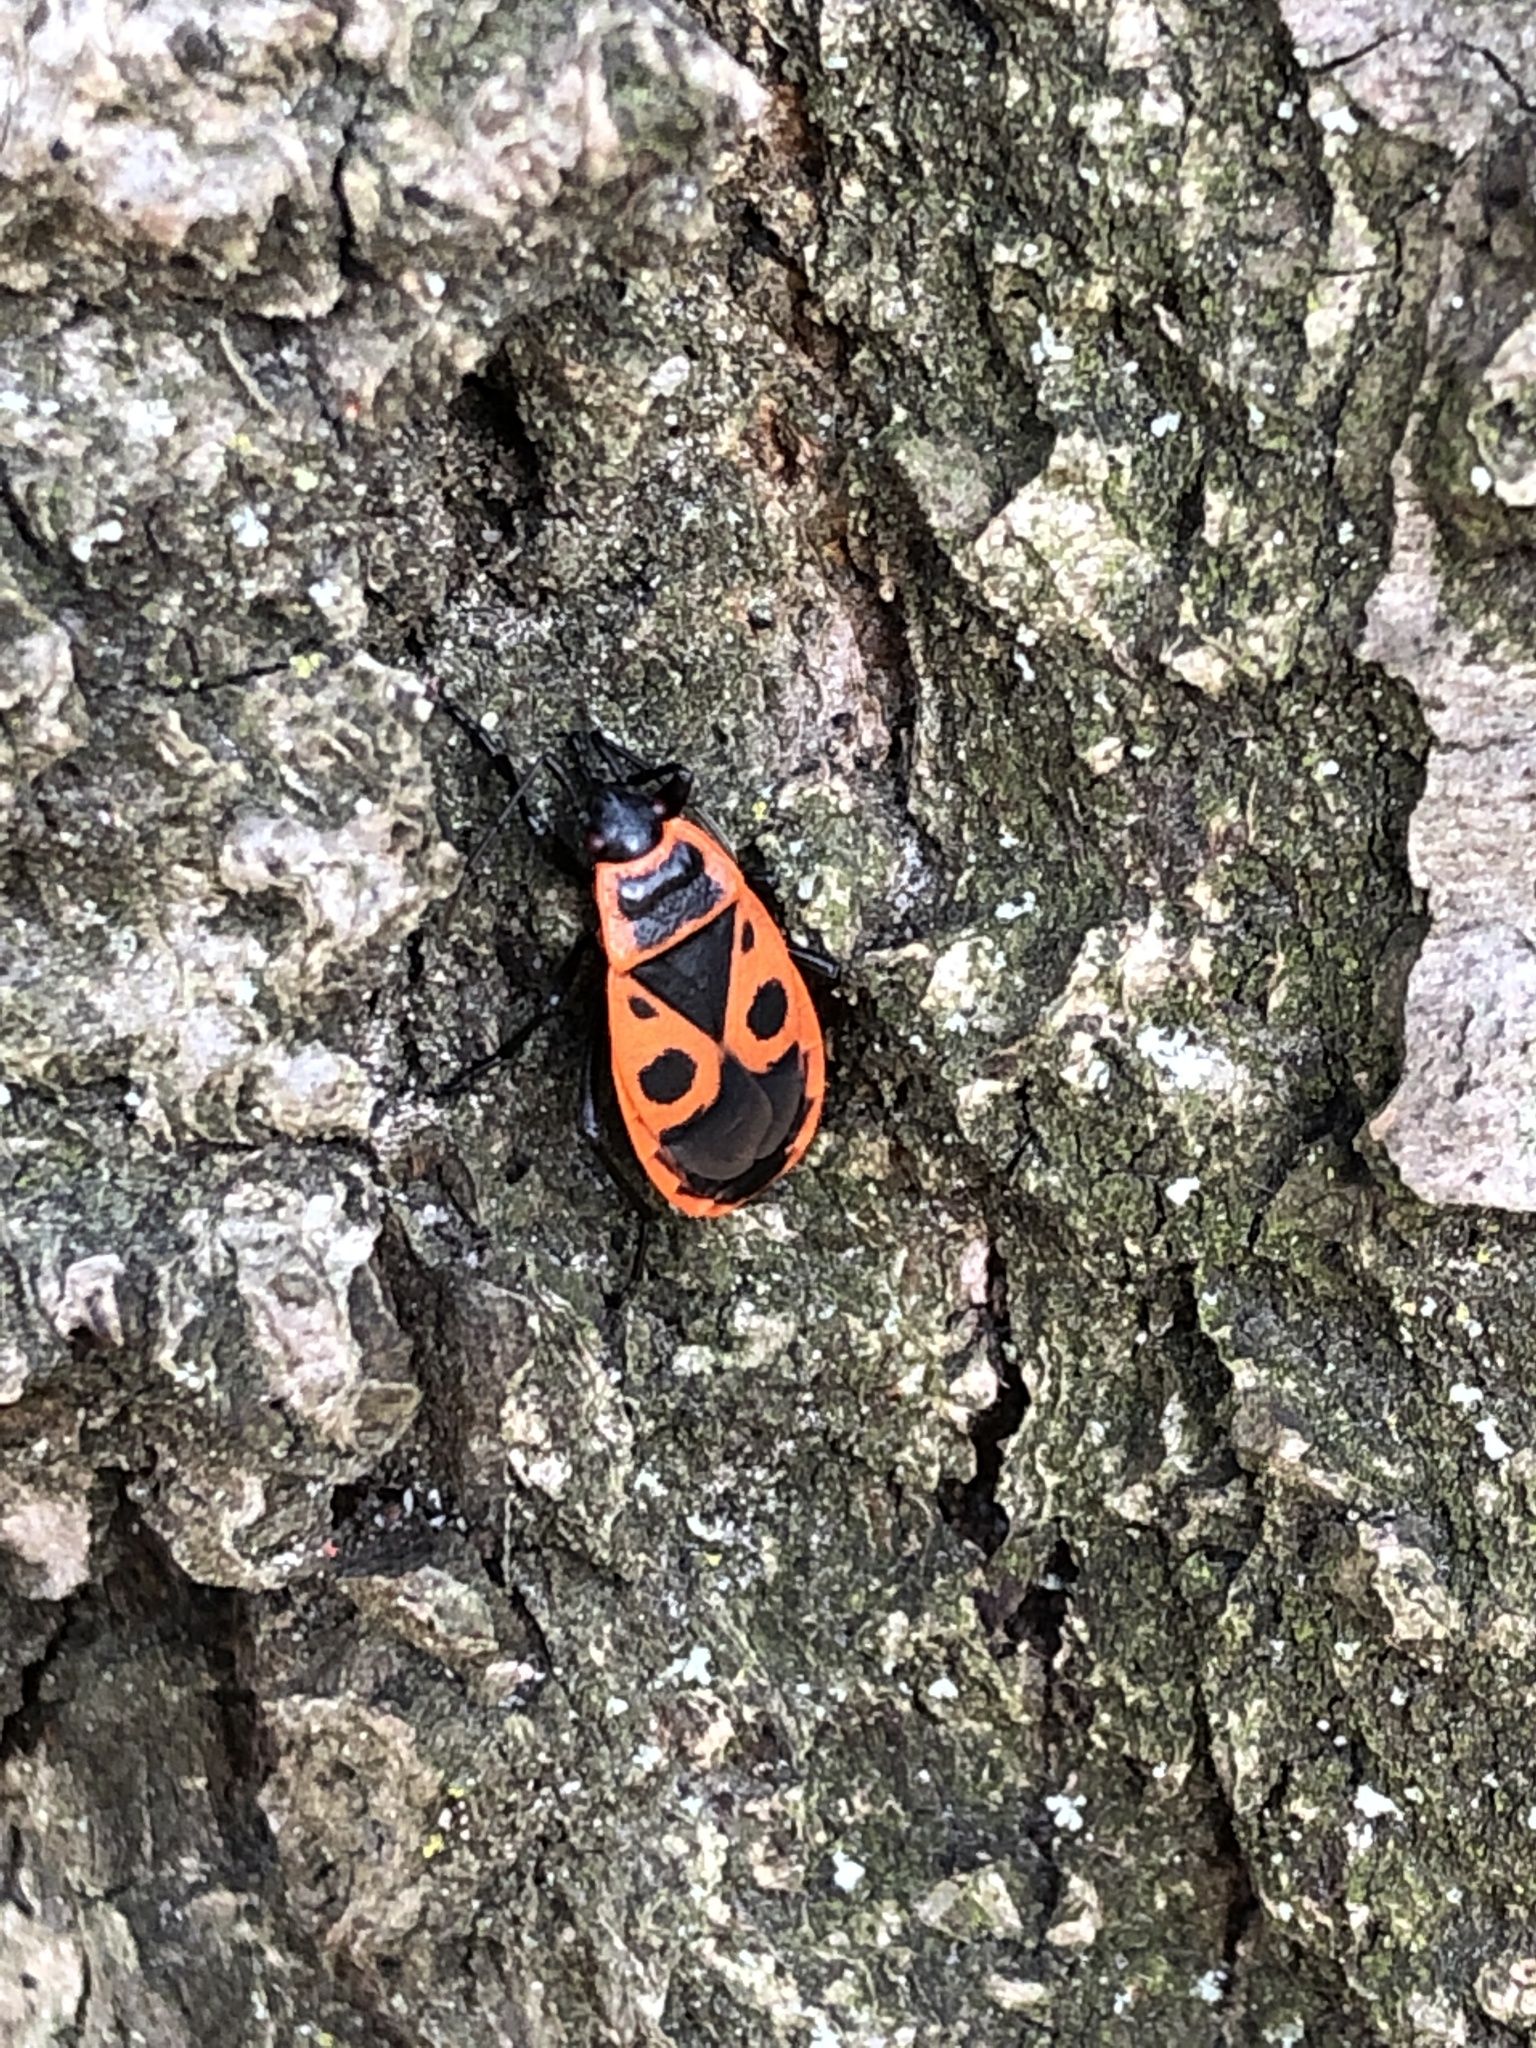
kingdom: Animalia
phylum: Arthropoda
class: Insecta
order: Hemiptera
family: Pyrrhocoridae
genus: Pyrrhocoris
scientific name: Pyrrhocoris apterus
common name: Firebug
